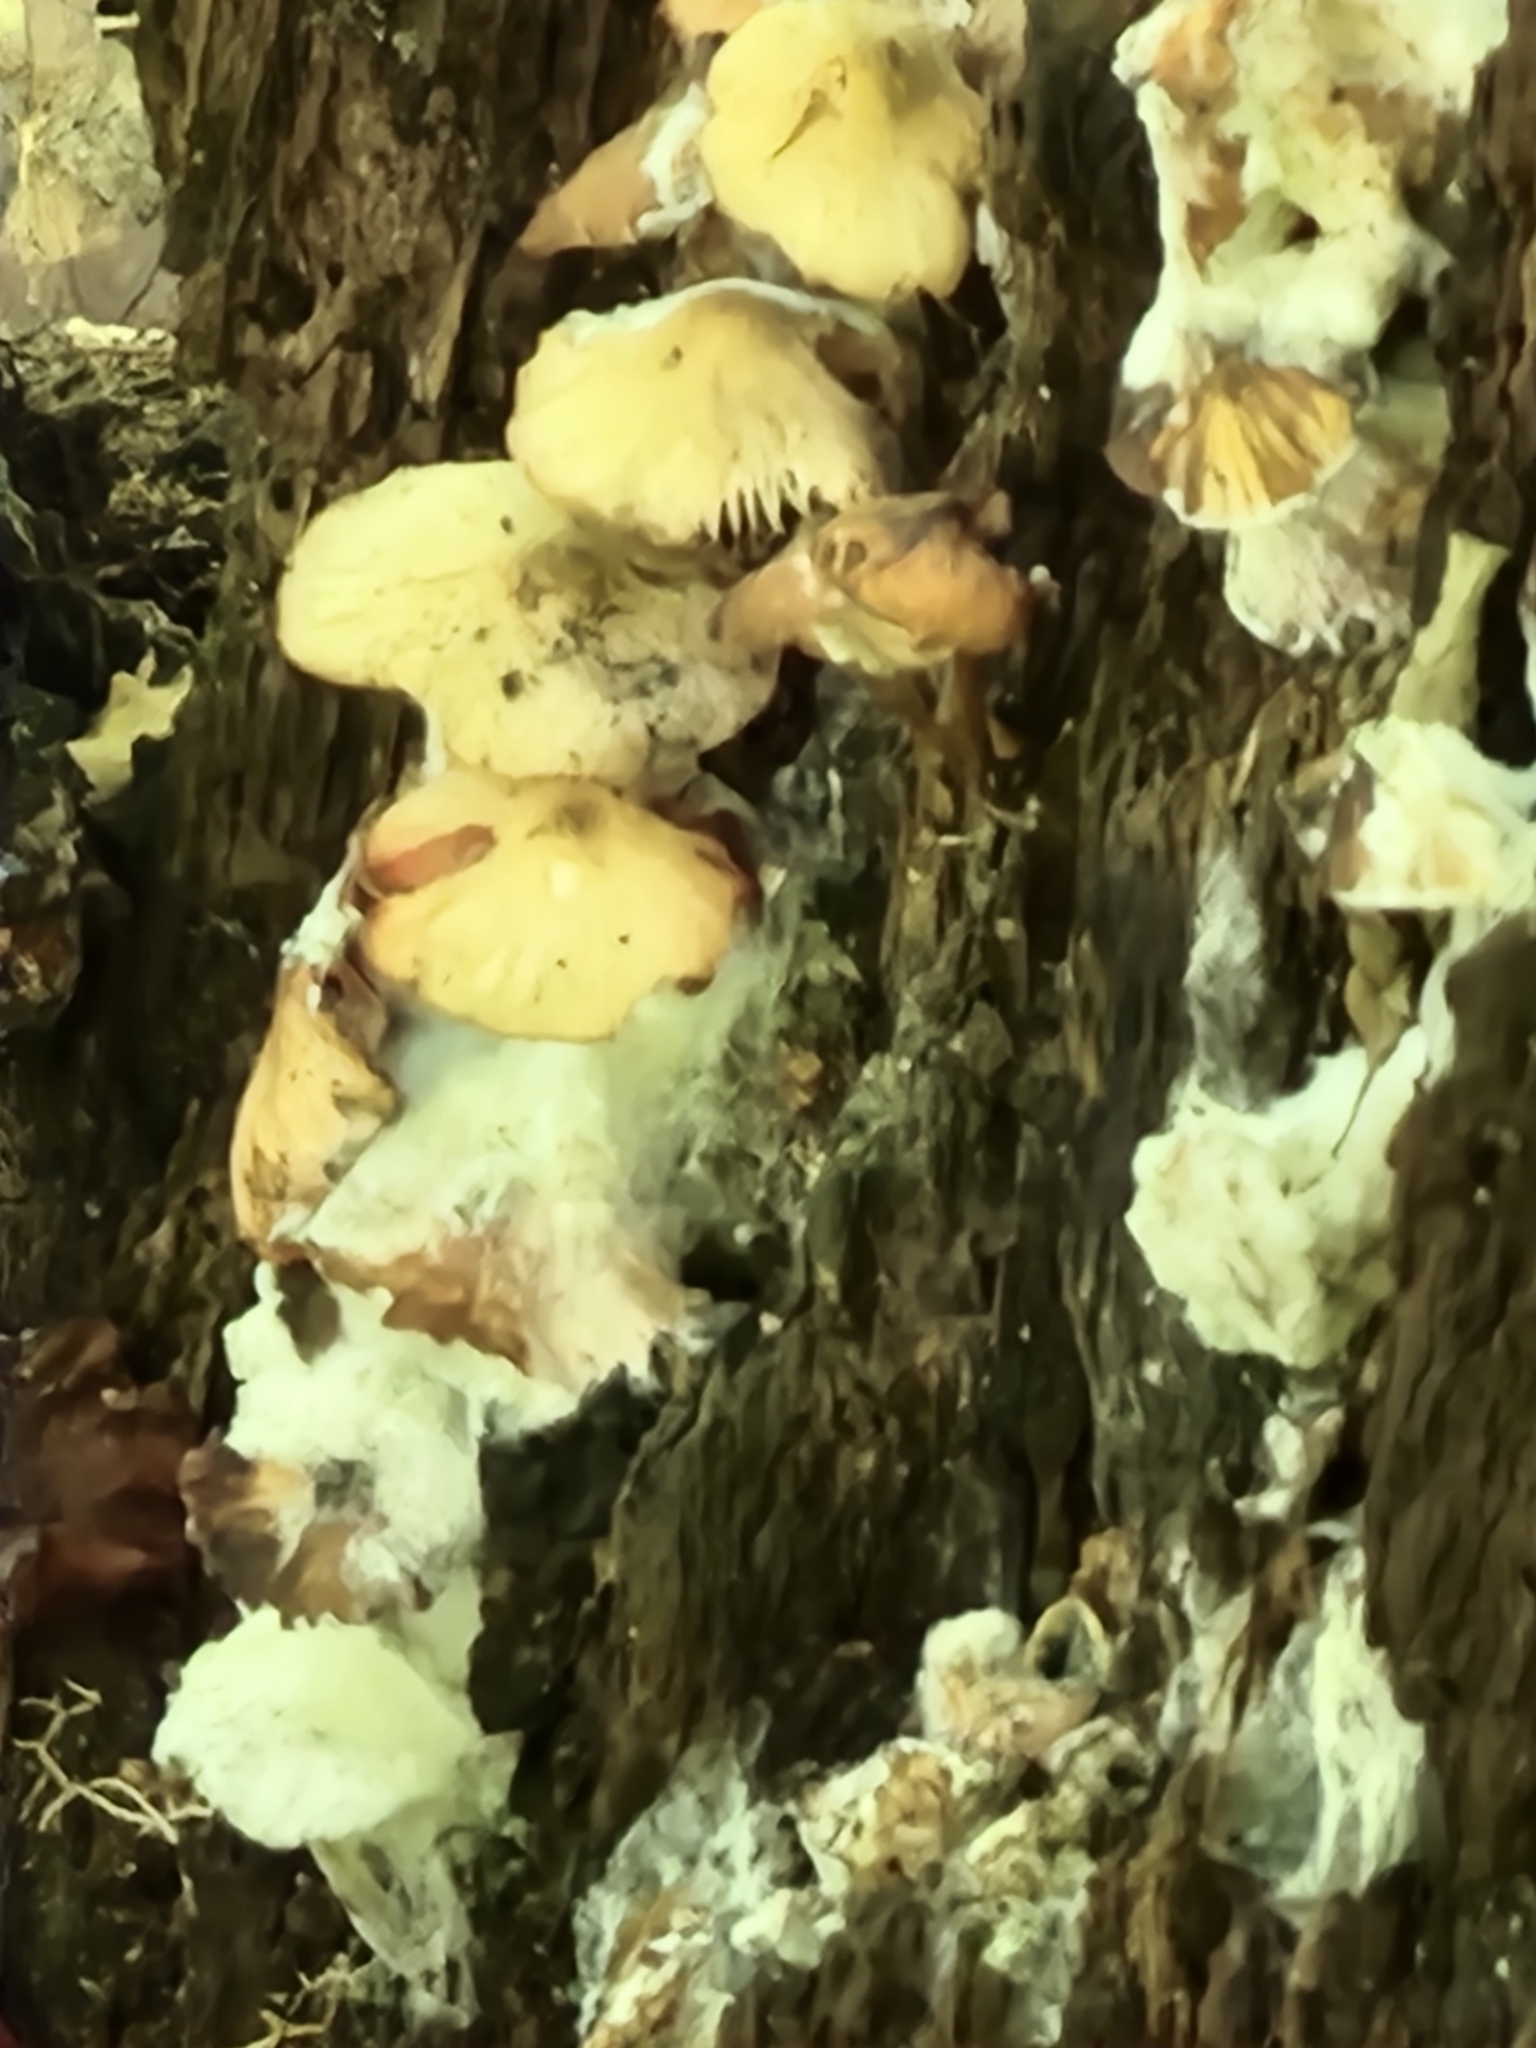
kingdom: Fungi
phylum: Basidiomycota
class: Agaricomycetes
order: Agaricales
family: Strophariaceae
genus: Hypholoma
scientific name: Hypholoma fasciculare
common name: Sulphur tuft
